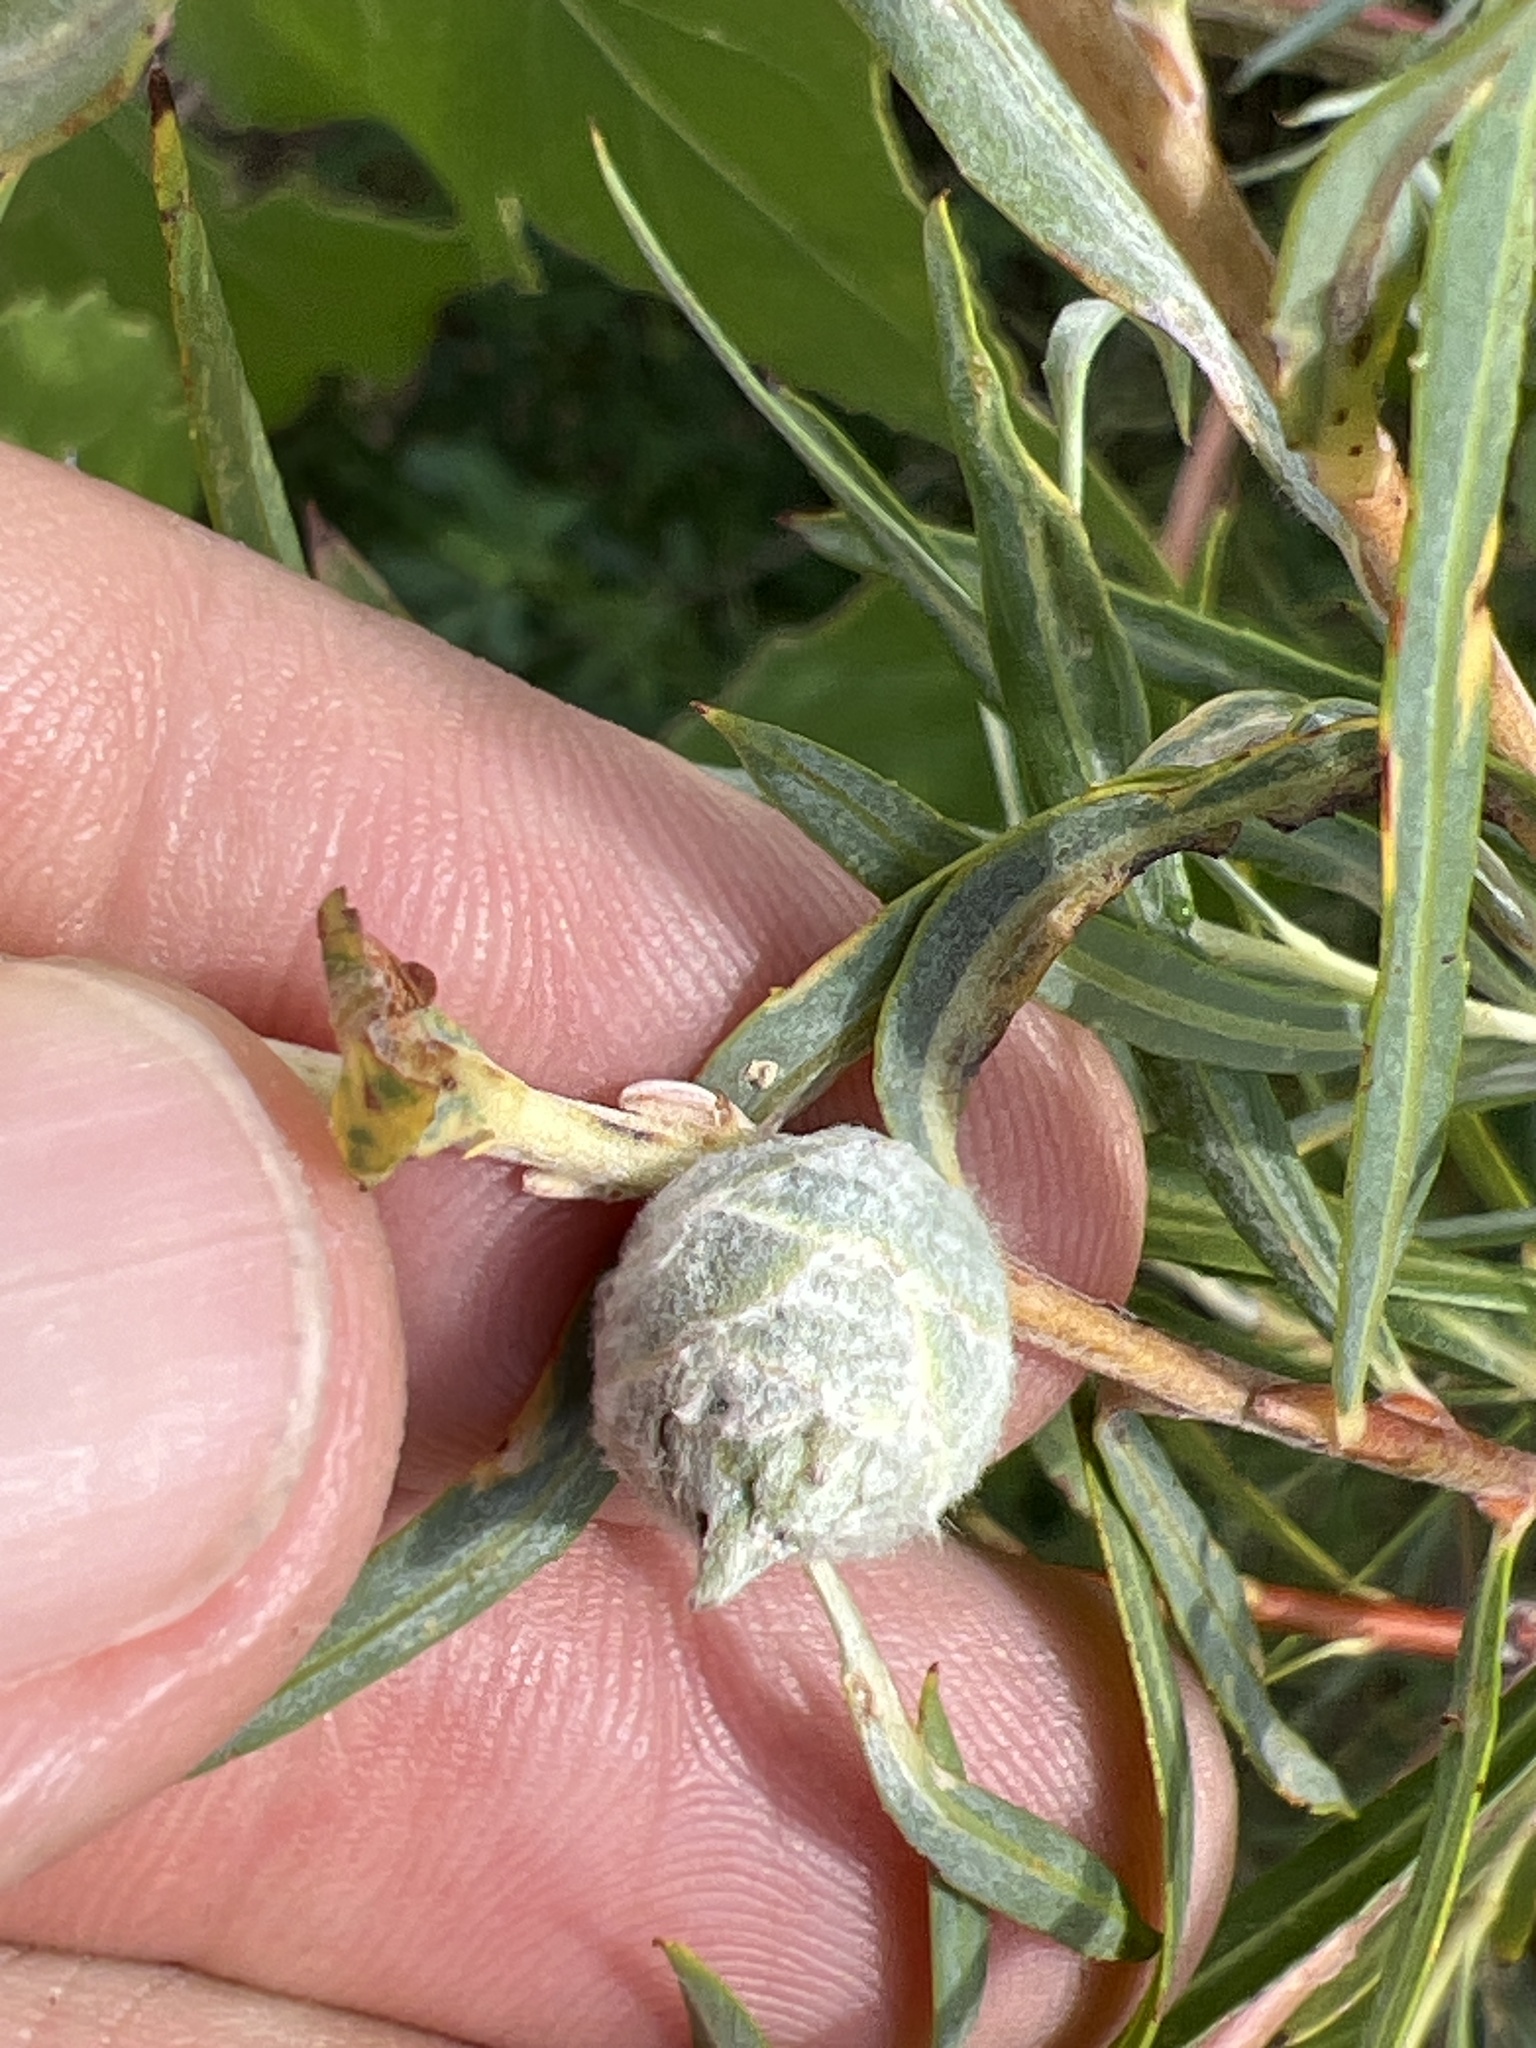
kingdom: Animalia
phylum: Arthropoda
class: Insecta
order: Diptera
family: Cecidomyiidae
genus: Rabdophaga
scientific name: Rabdophaga strobiloides
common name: Willow pinecone gall midge
